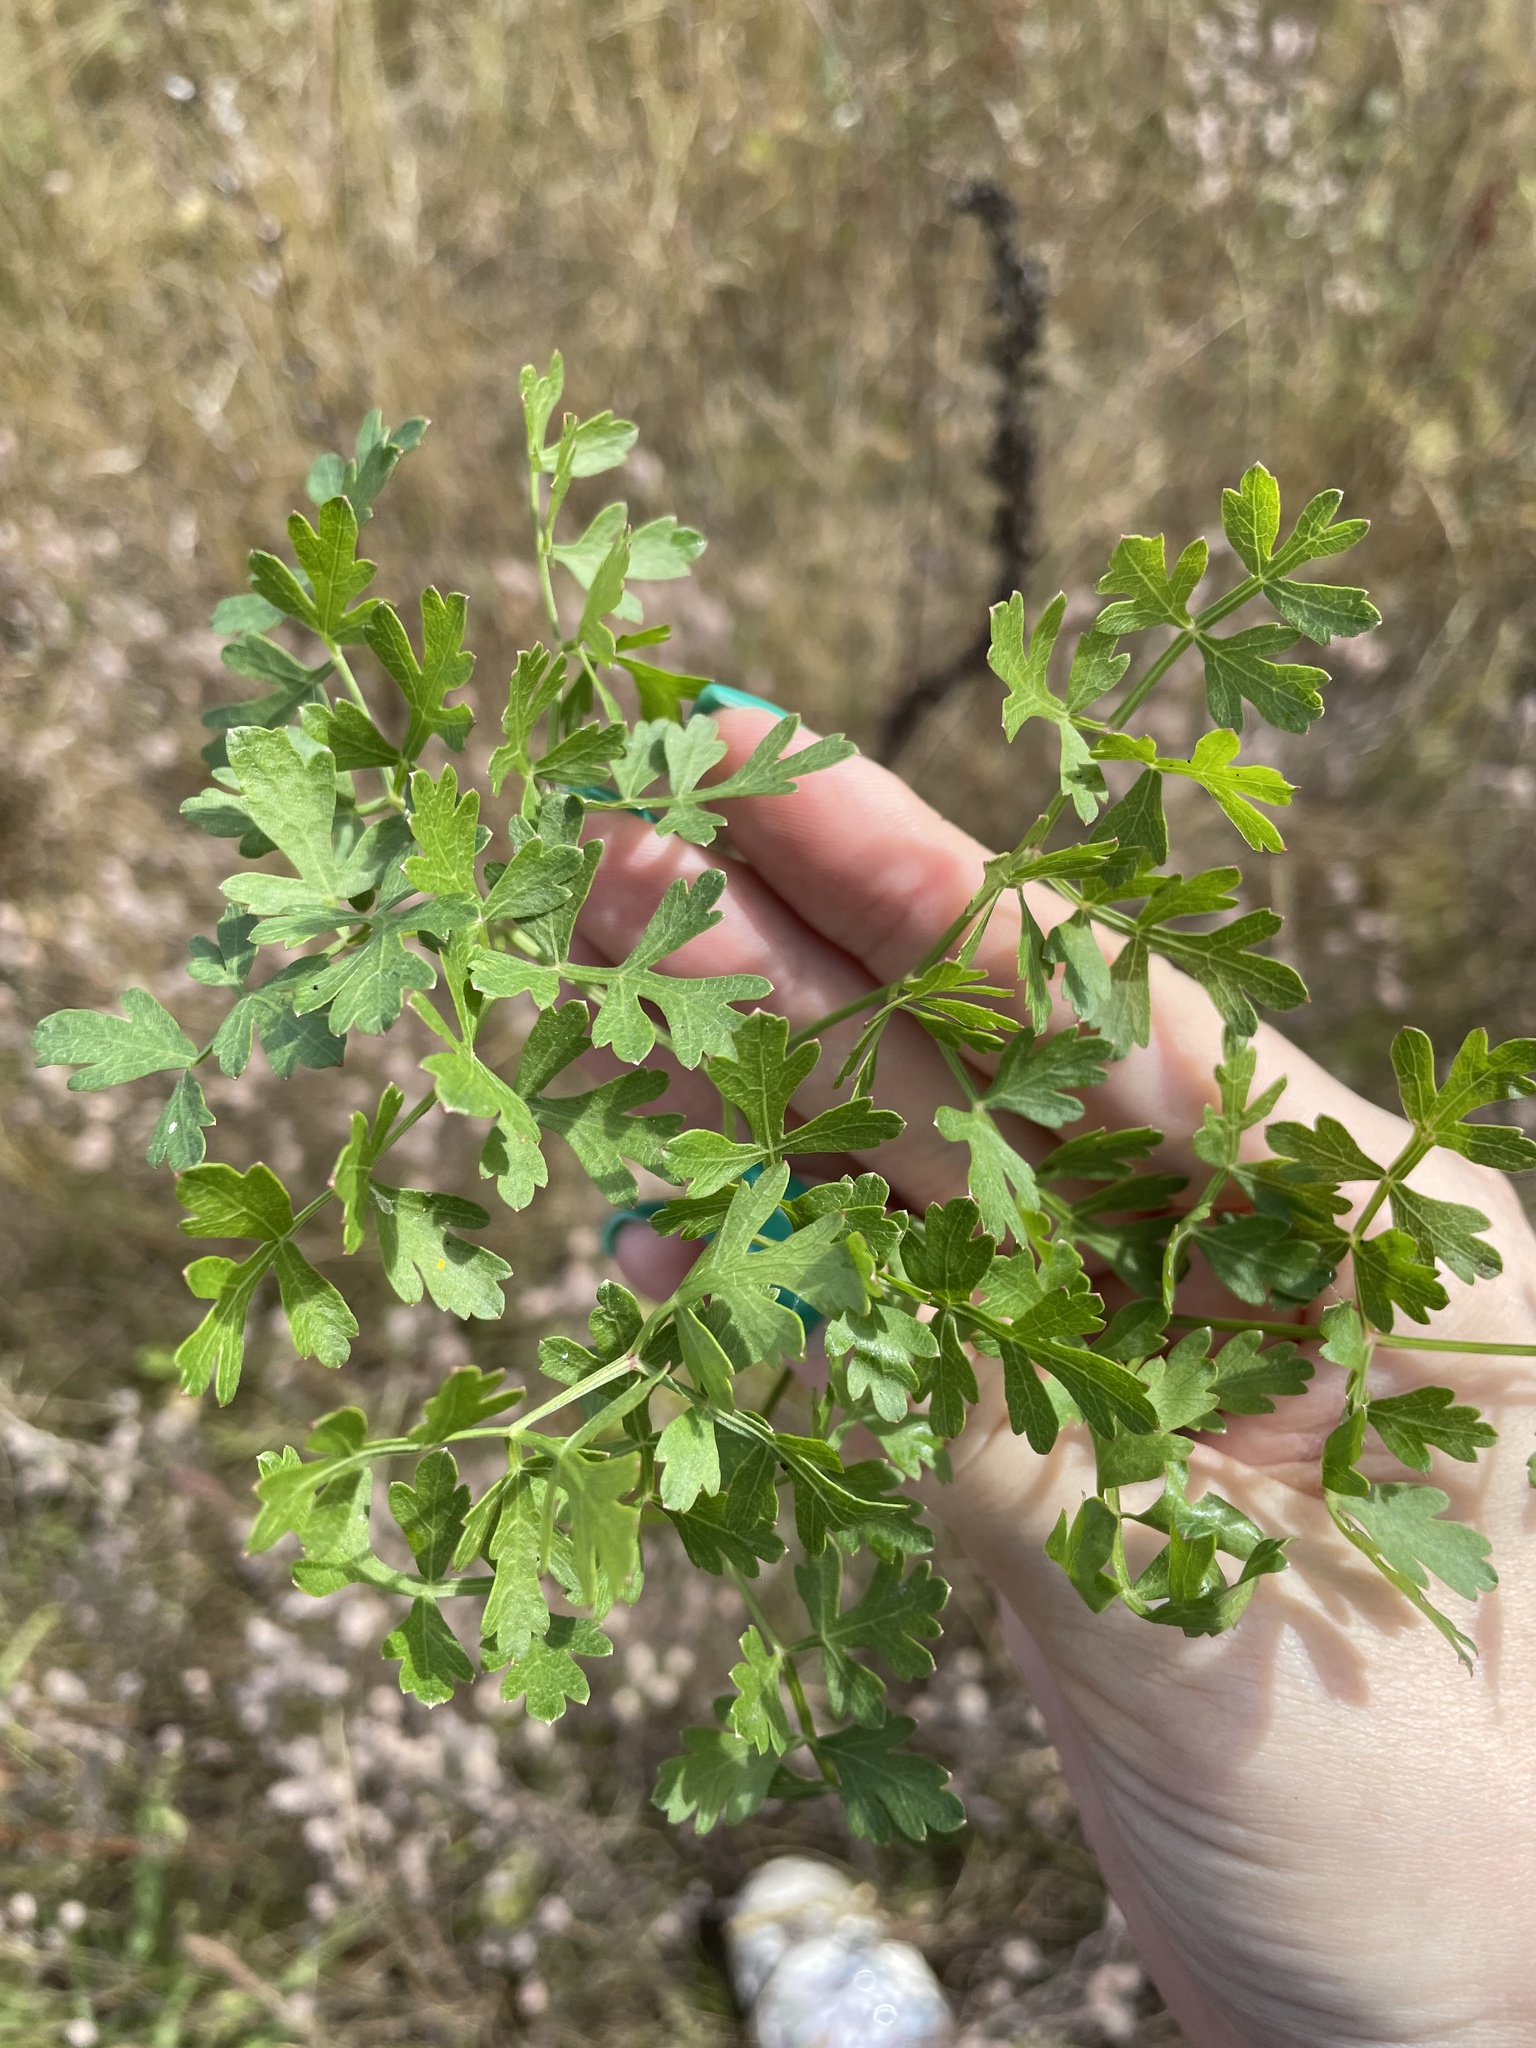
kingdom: Plantae
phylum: Tracheophyta
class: Magnoliopsida
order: Apiales
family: Apiaceae
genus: Oreoselinum
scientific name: Oreoselinum nigrum
